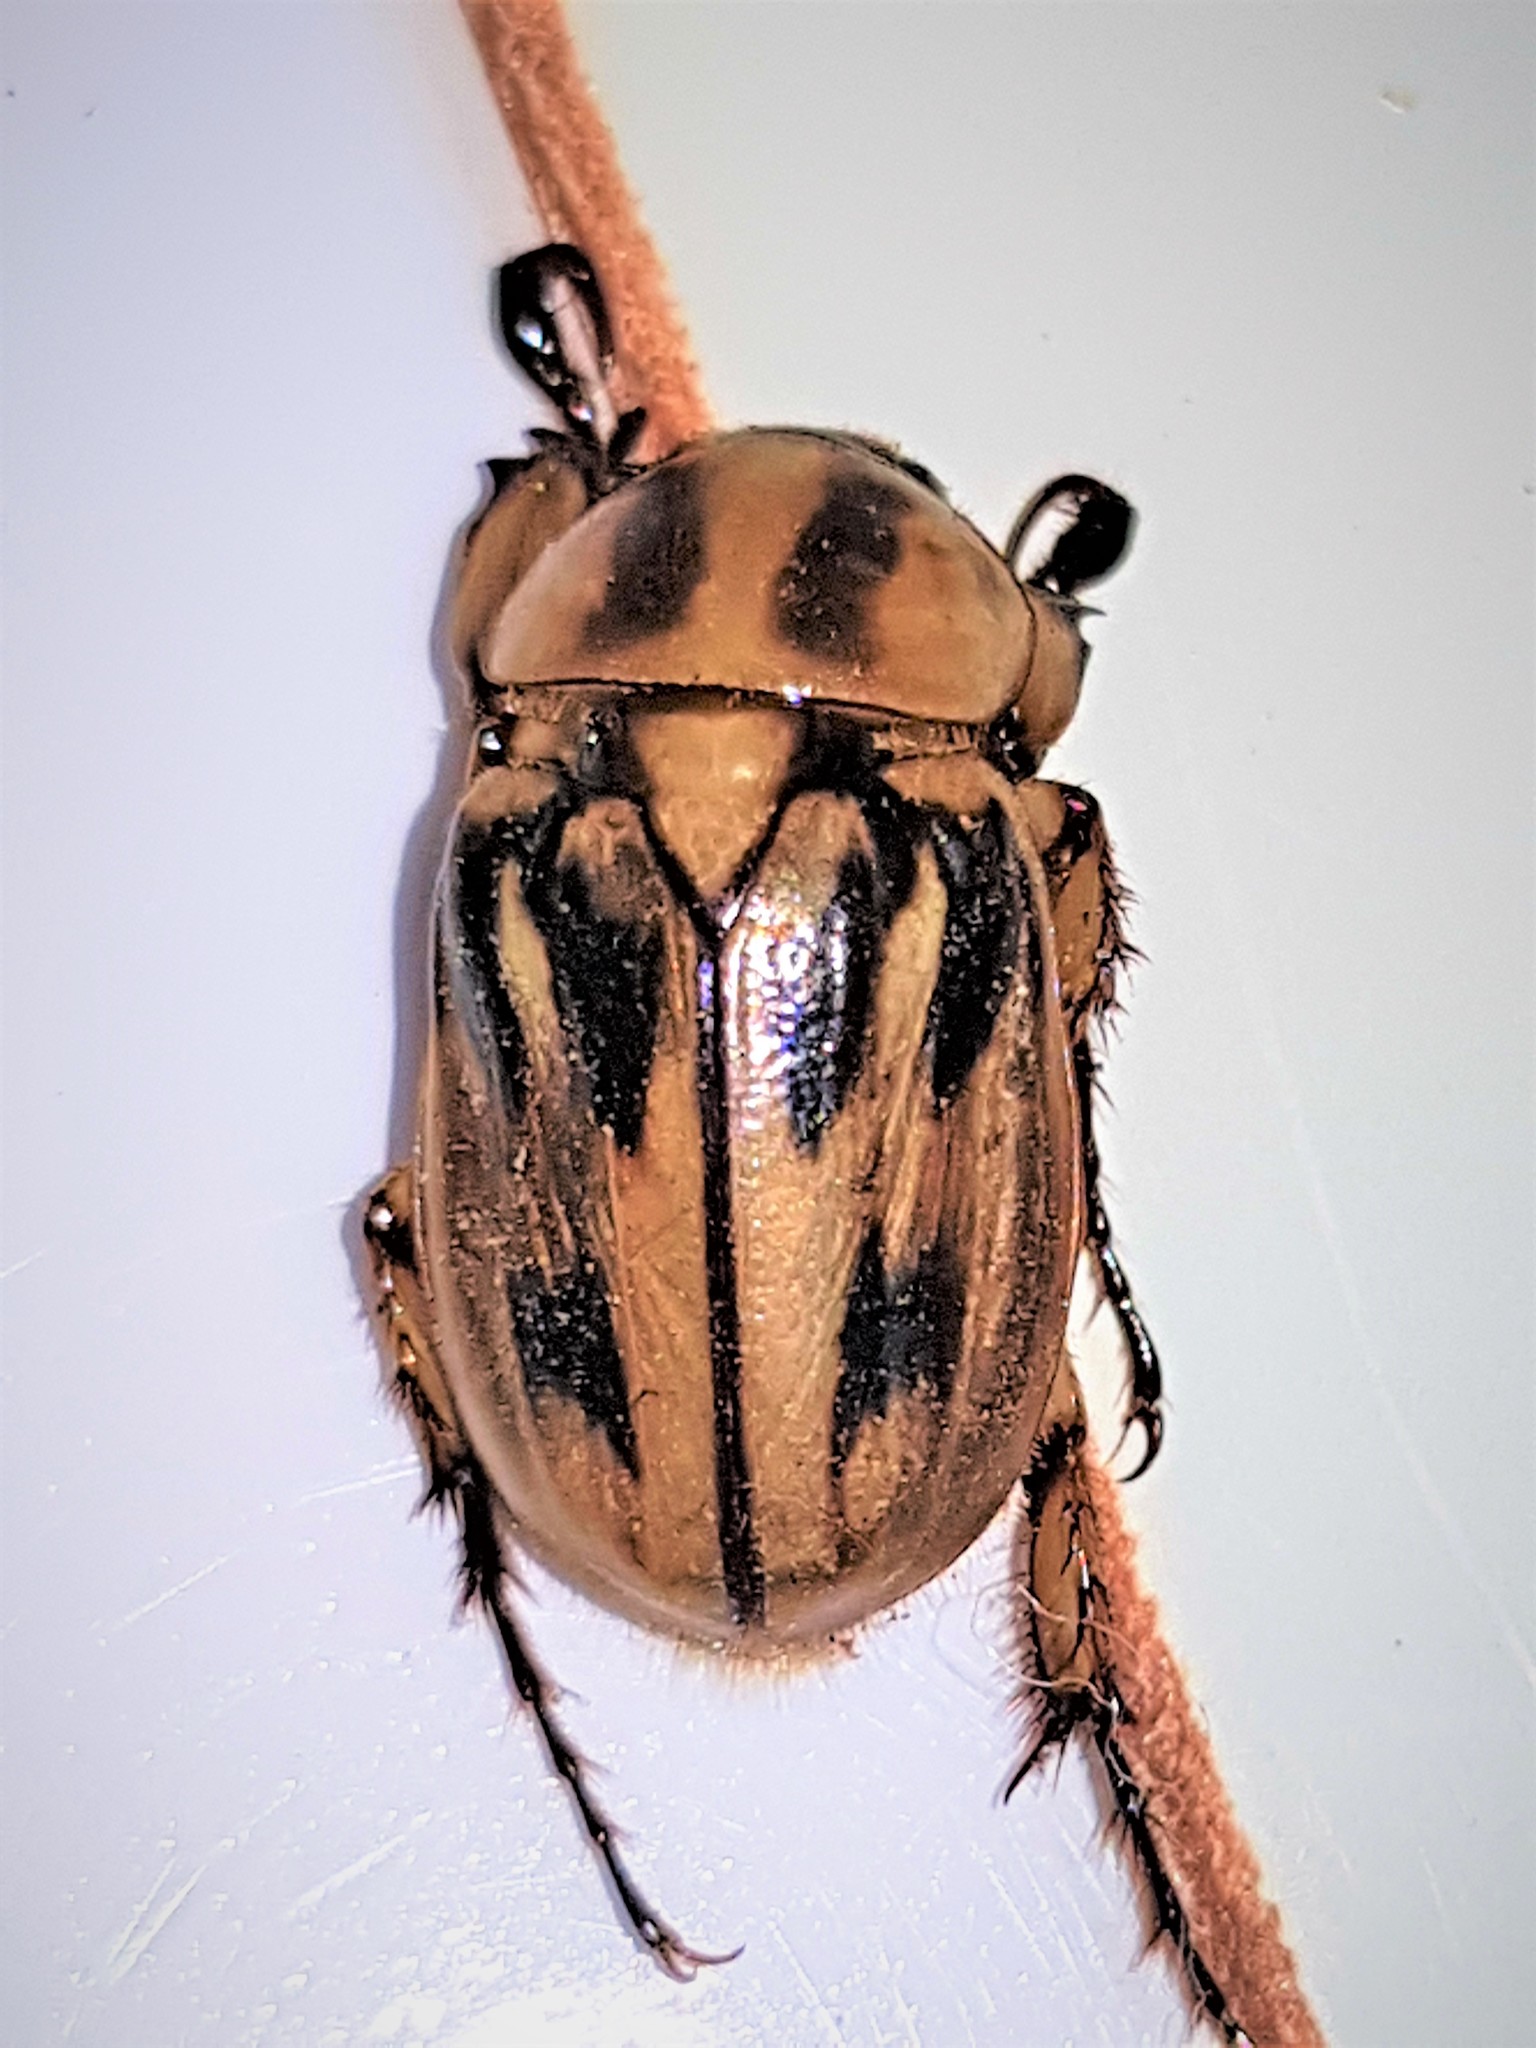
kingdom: Animalia
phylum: Arthropoda
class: Insecta
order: Coleoptera
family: Scarabaeidae
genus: Cyclocephala
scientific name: Cyclocephala durantonorum
